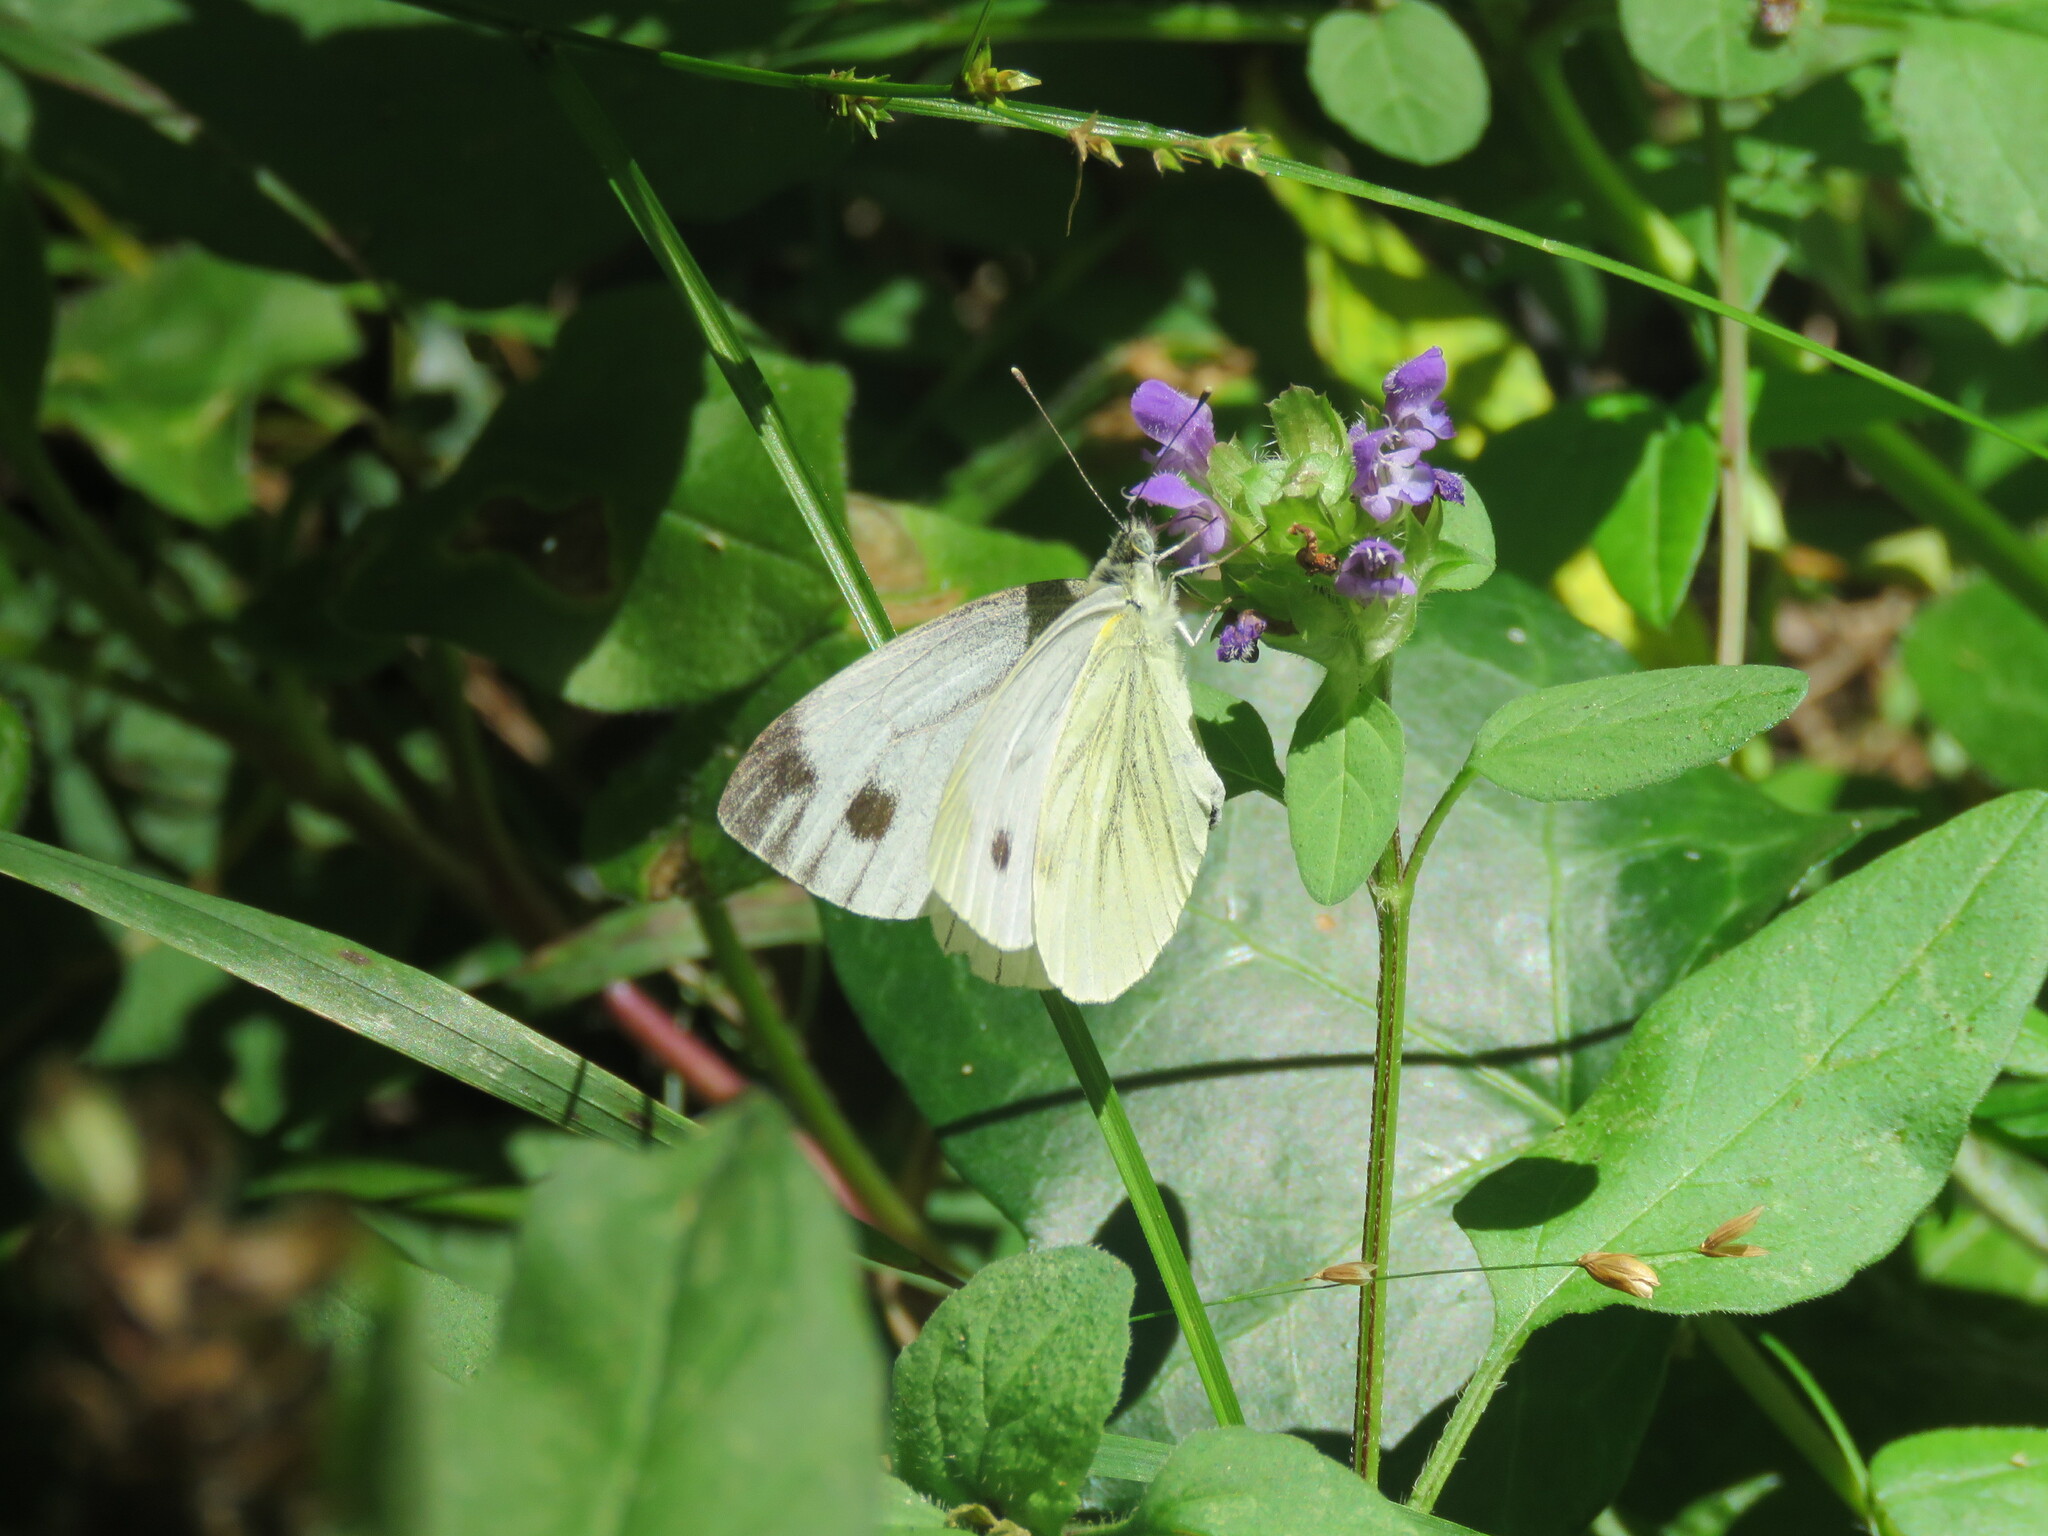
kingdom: Animalia
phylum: Arthropoda
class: Insecta
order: Lepidoptera
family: Pieridae
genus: Pieris
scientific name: Pieris napi
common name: Green-veined white
